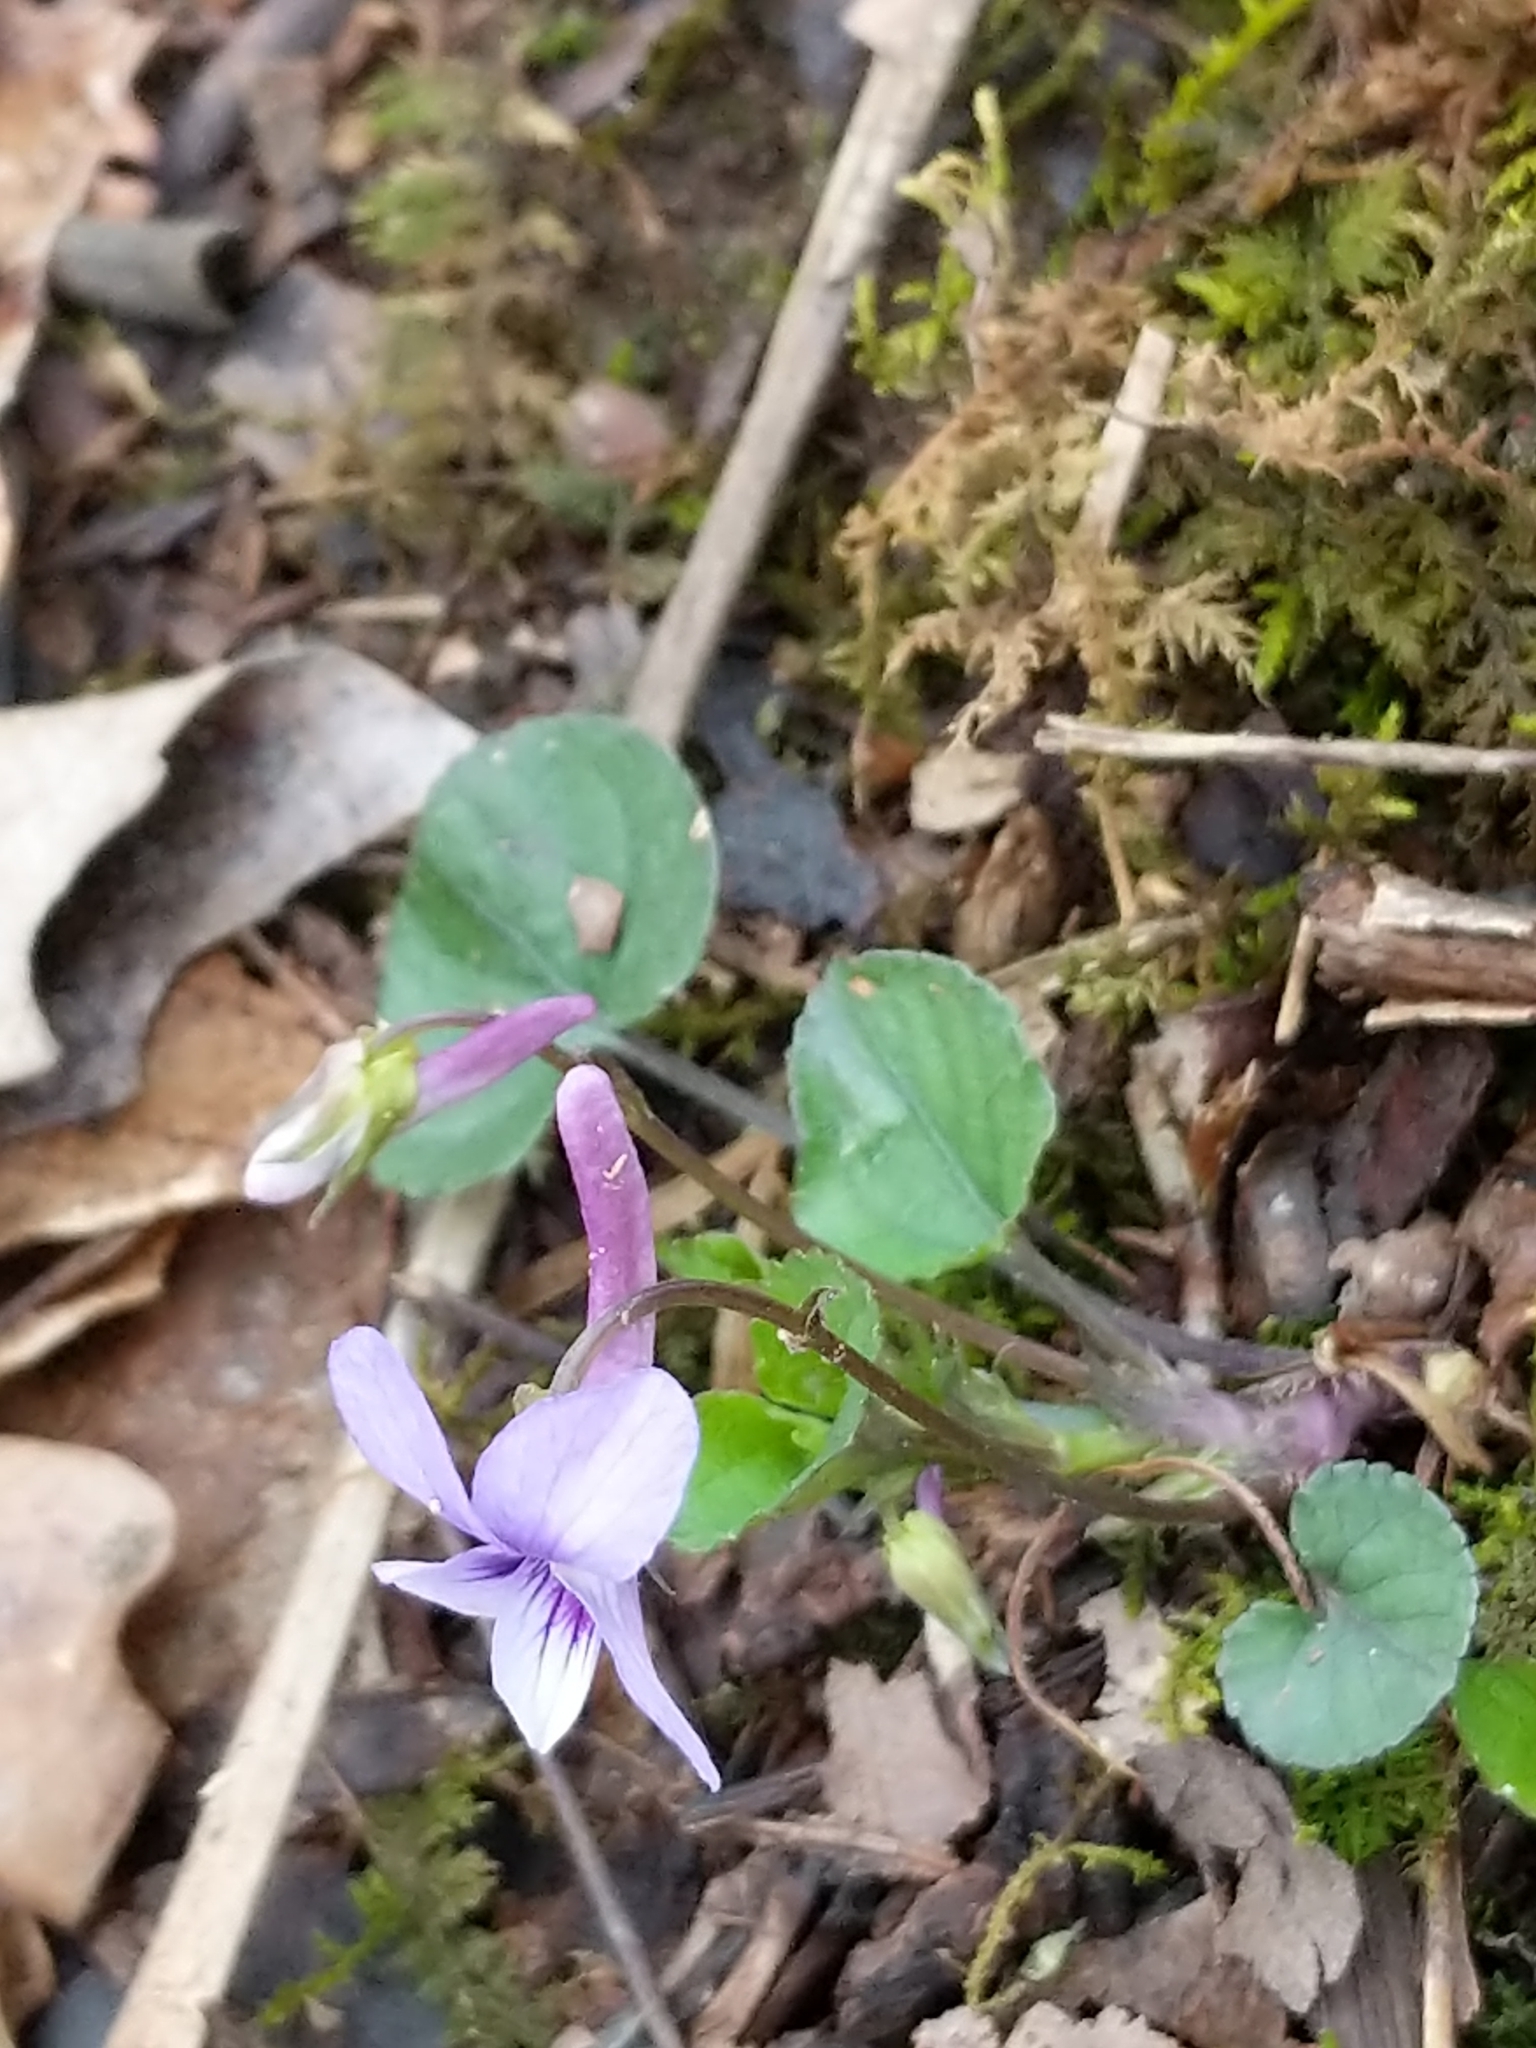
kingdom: Plantae
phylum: Tracheophyta
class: Magnoliopsida
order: Malpighiales
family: Violaceae
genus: Viola
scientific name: Viola rostrata
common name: Long-spur violet
